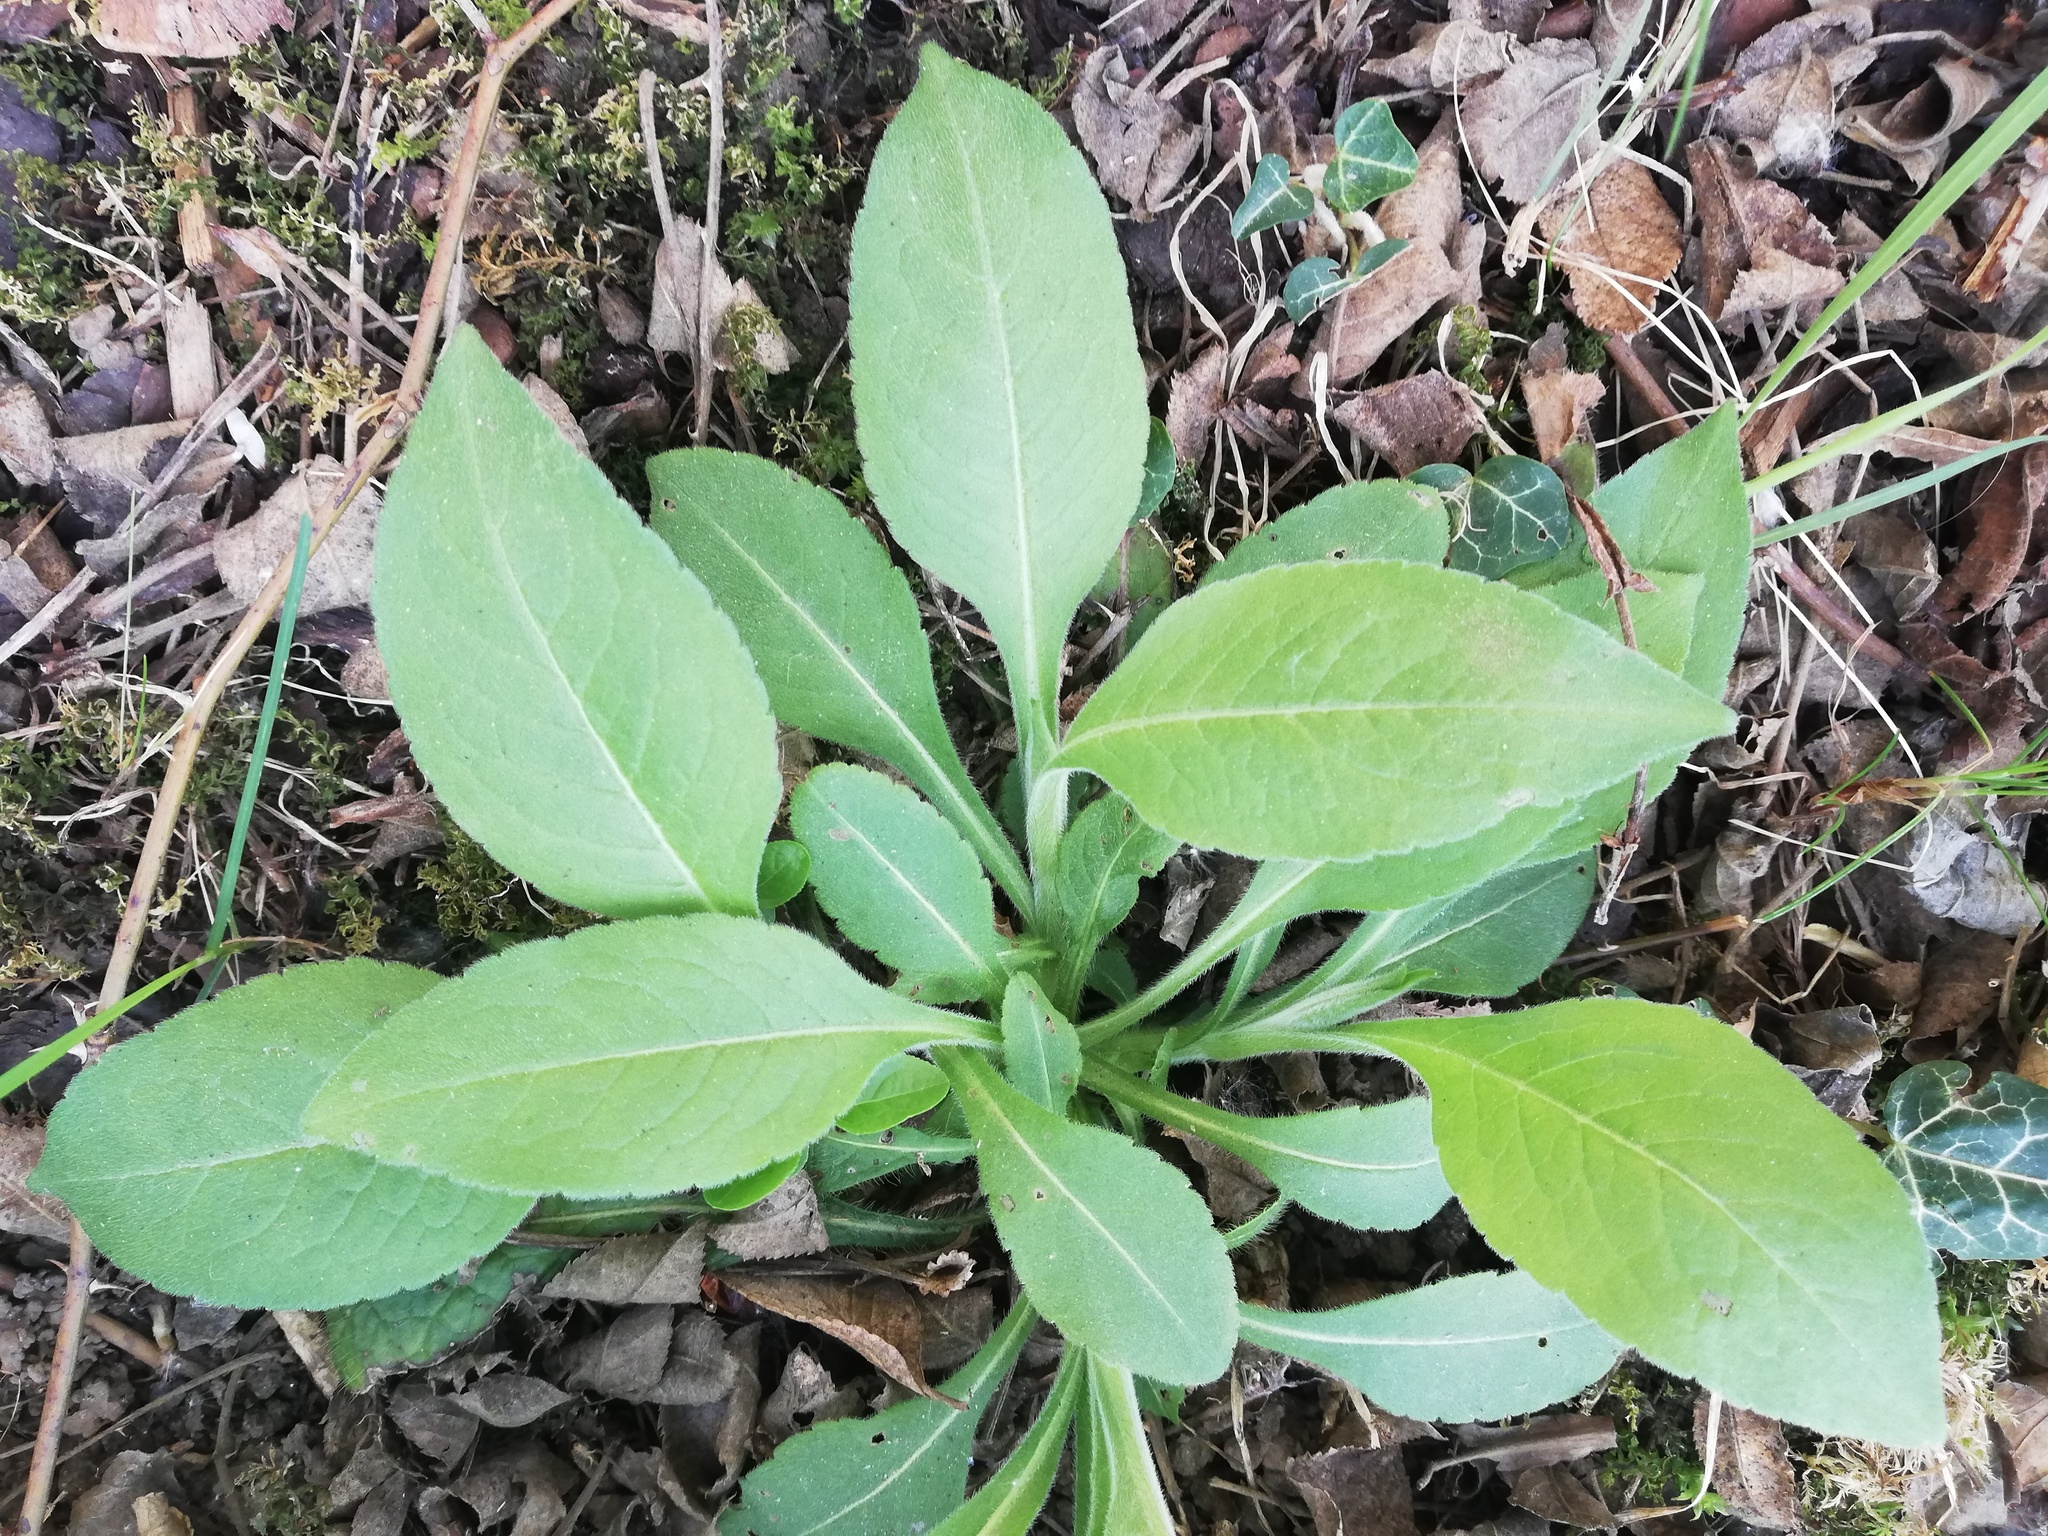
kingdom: Plantae
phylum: Tracheophyta
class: Magnoliopsida
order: Dipsacales
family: Caprifoliaceae
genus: Knautia
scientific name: Knautia drymeia
